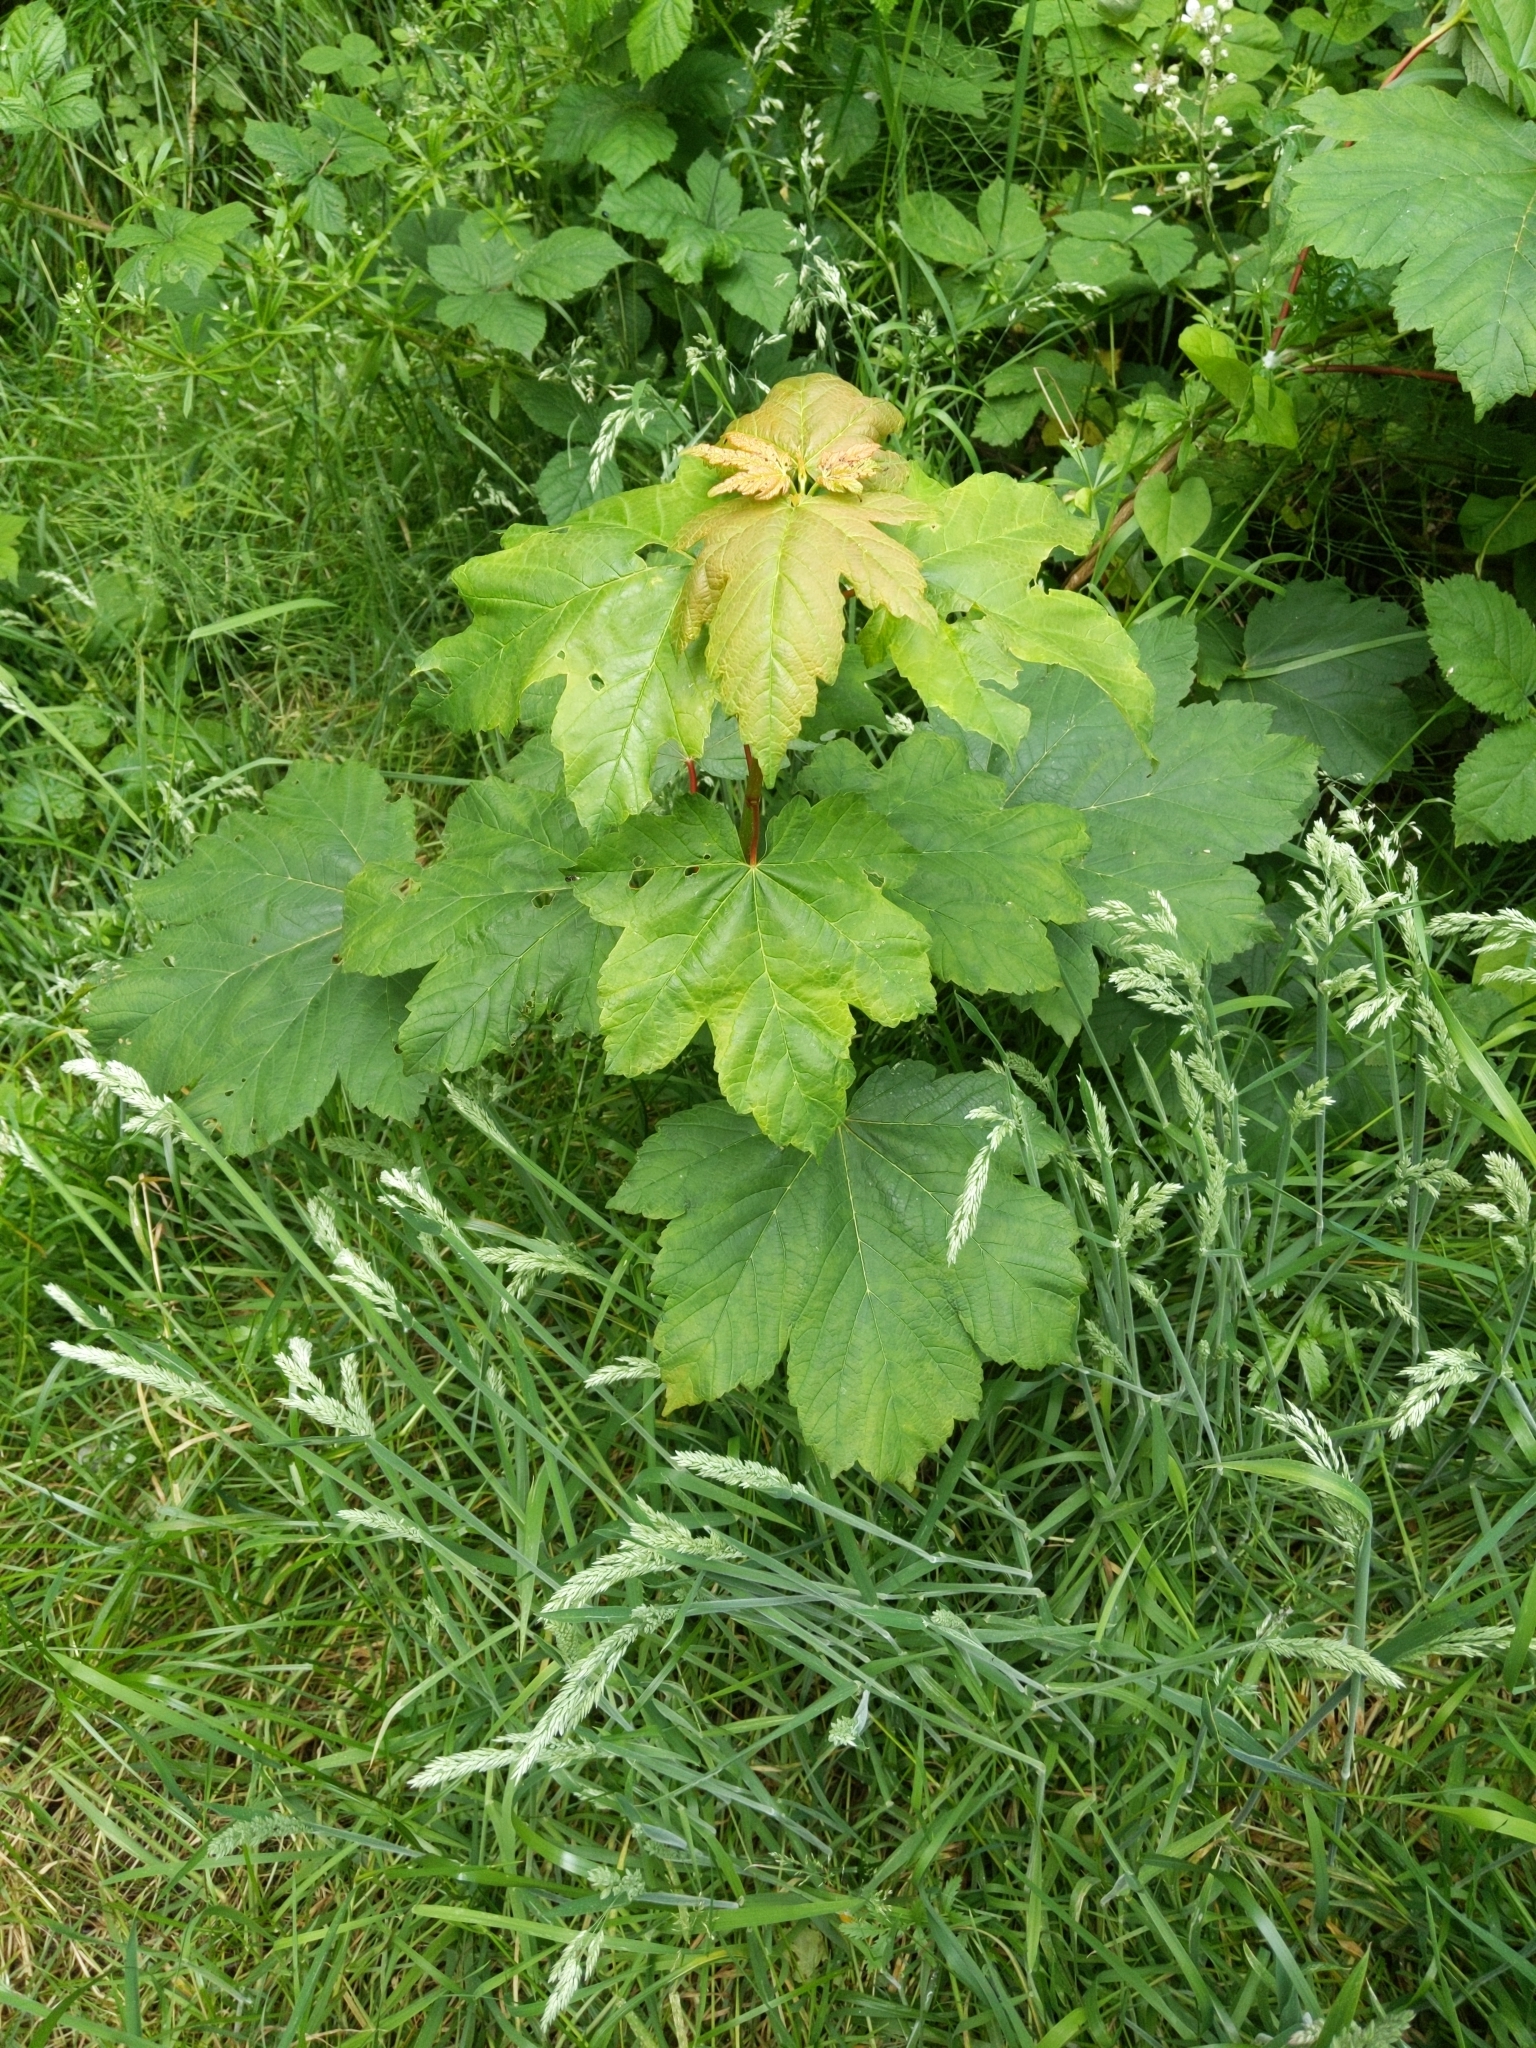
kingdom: Plantae
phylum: Tracheophyta
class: Magnoliopsida
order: Sapindales
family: Sapindaceae
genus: Acer
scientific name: Acer pseudoplatanus
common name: Sycamore
